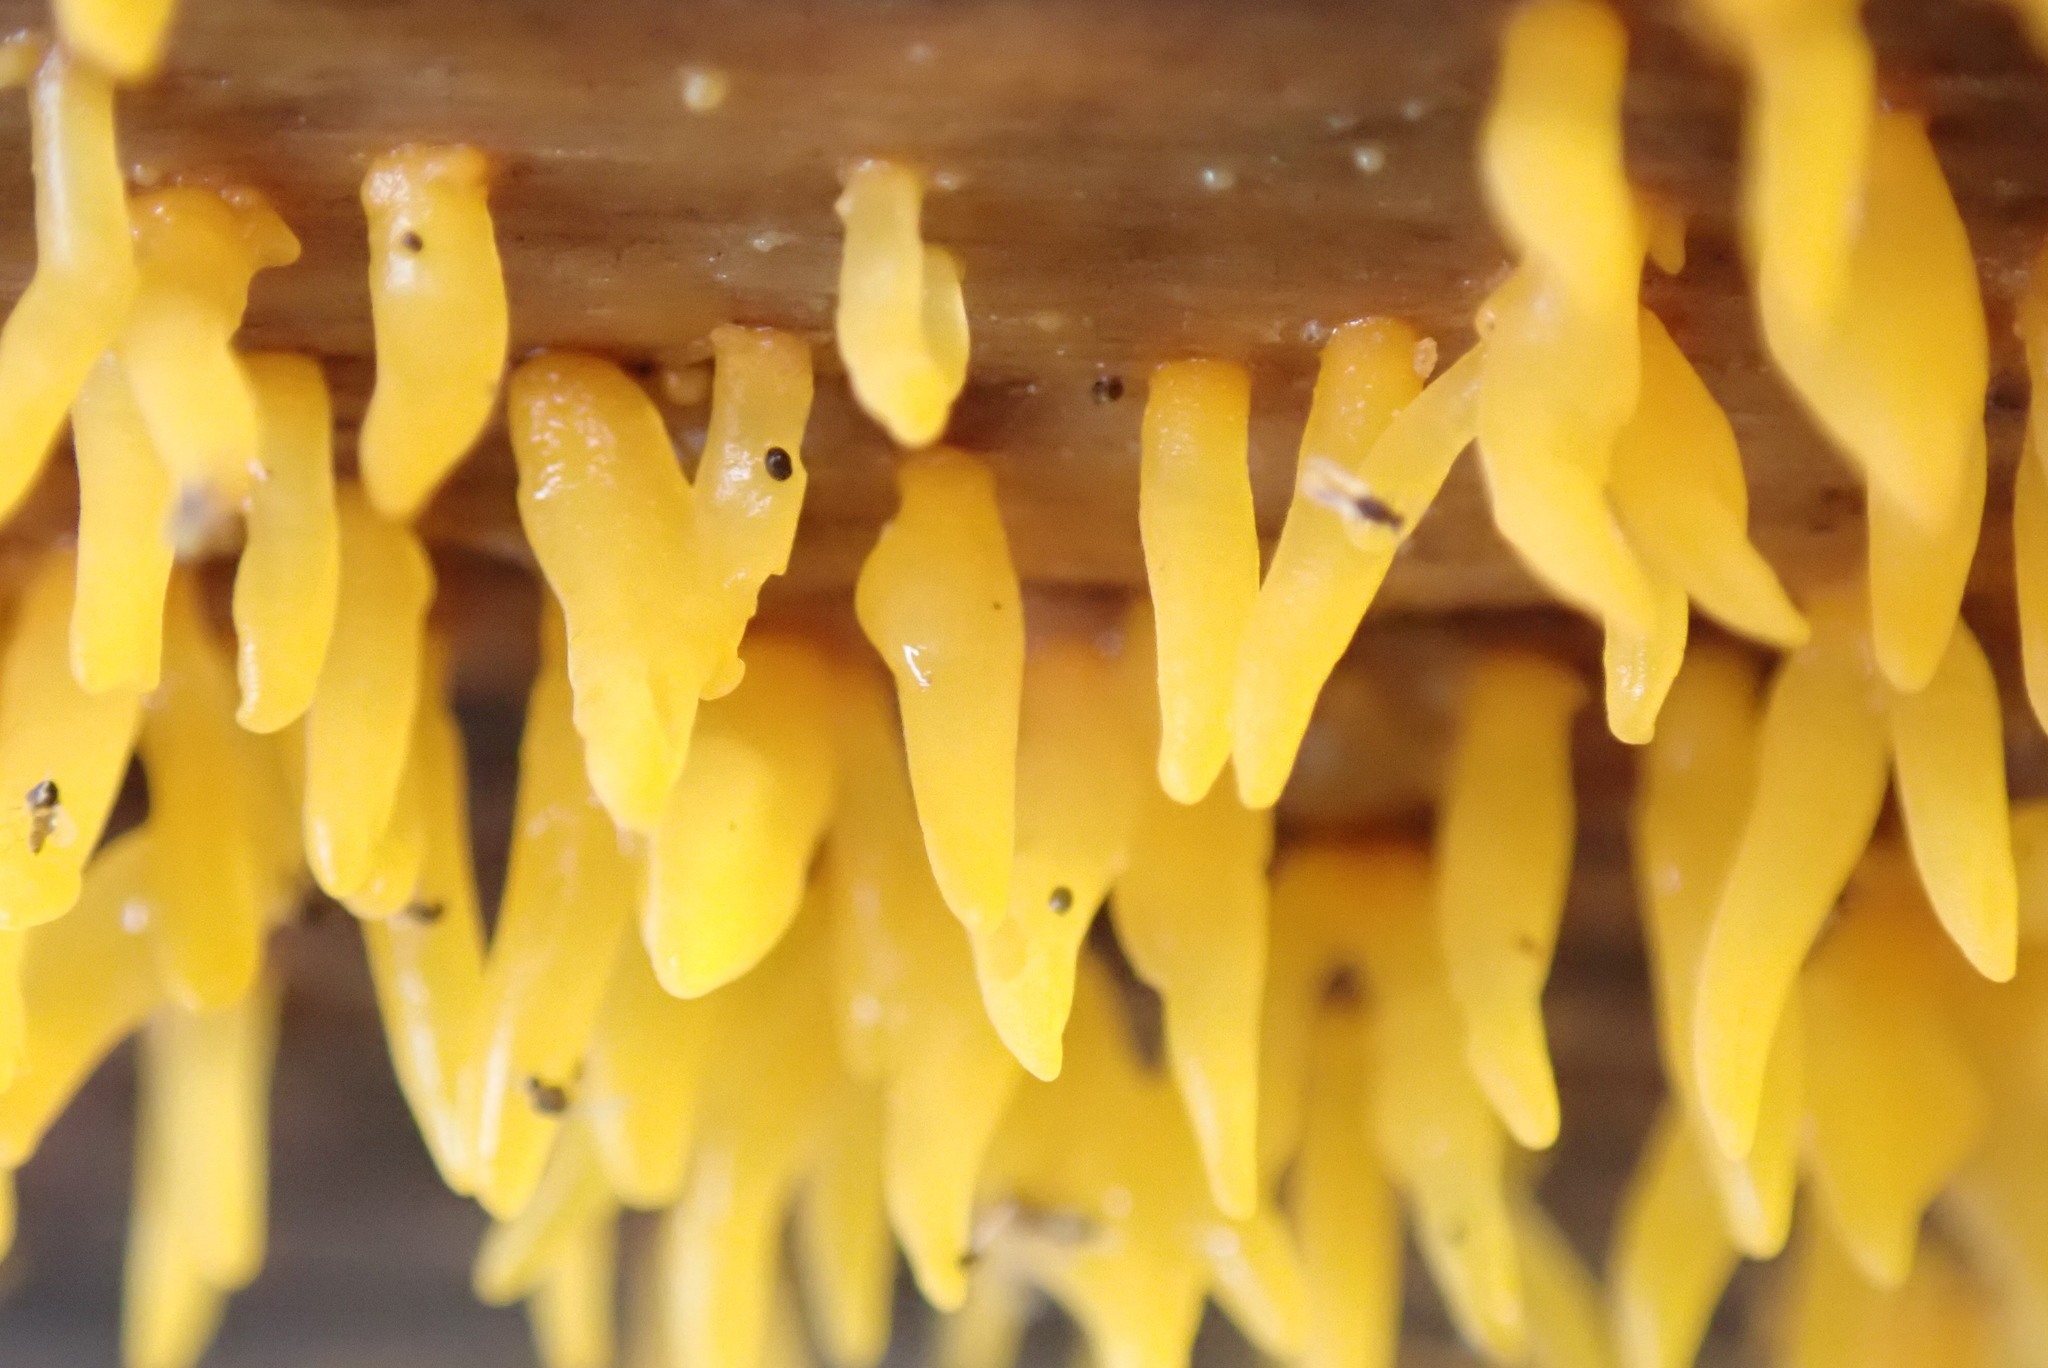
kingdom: Fungi
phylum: Basidiomycota
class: Dacrymycetes
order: Dacrymycetales
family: Dacrymycetaceae
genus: Calocera
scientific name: Calocera cornea
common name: Small stagshorn
